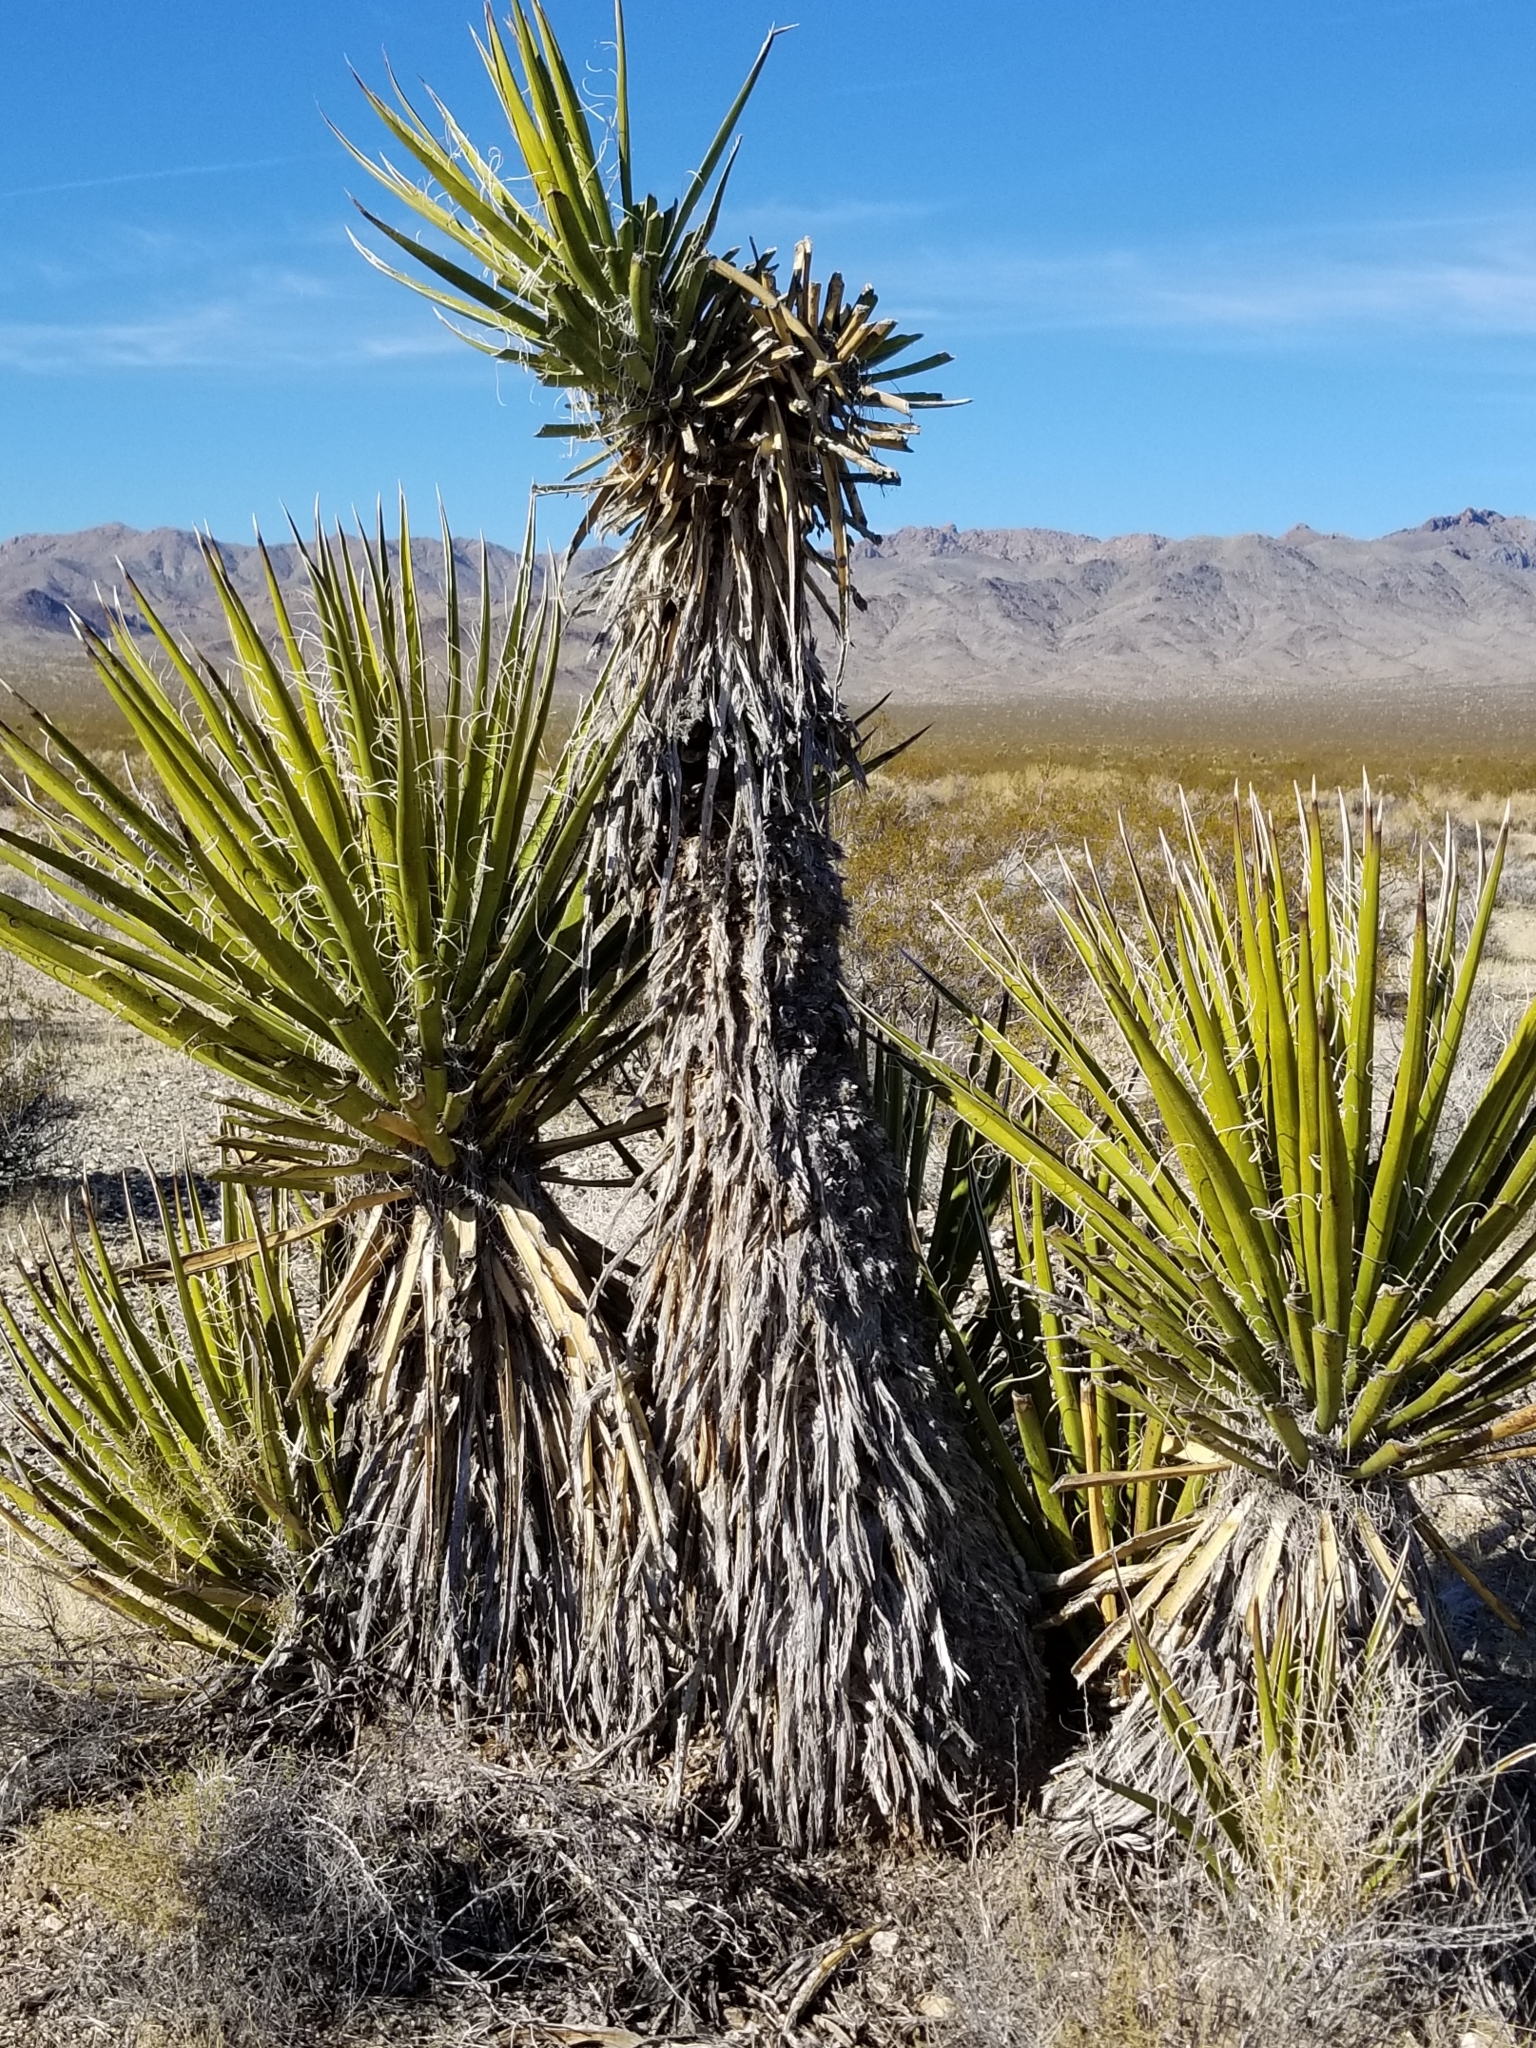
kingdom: Plantae
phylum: Tracheophyta
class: Liliopsida
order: Asparagales
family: Asparagaceae
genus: Yucca
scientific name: Yucca schidigera
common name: Mojave yucca
